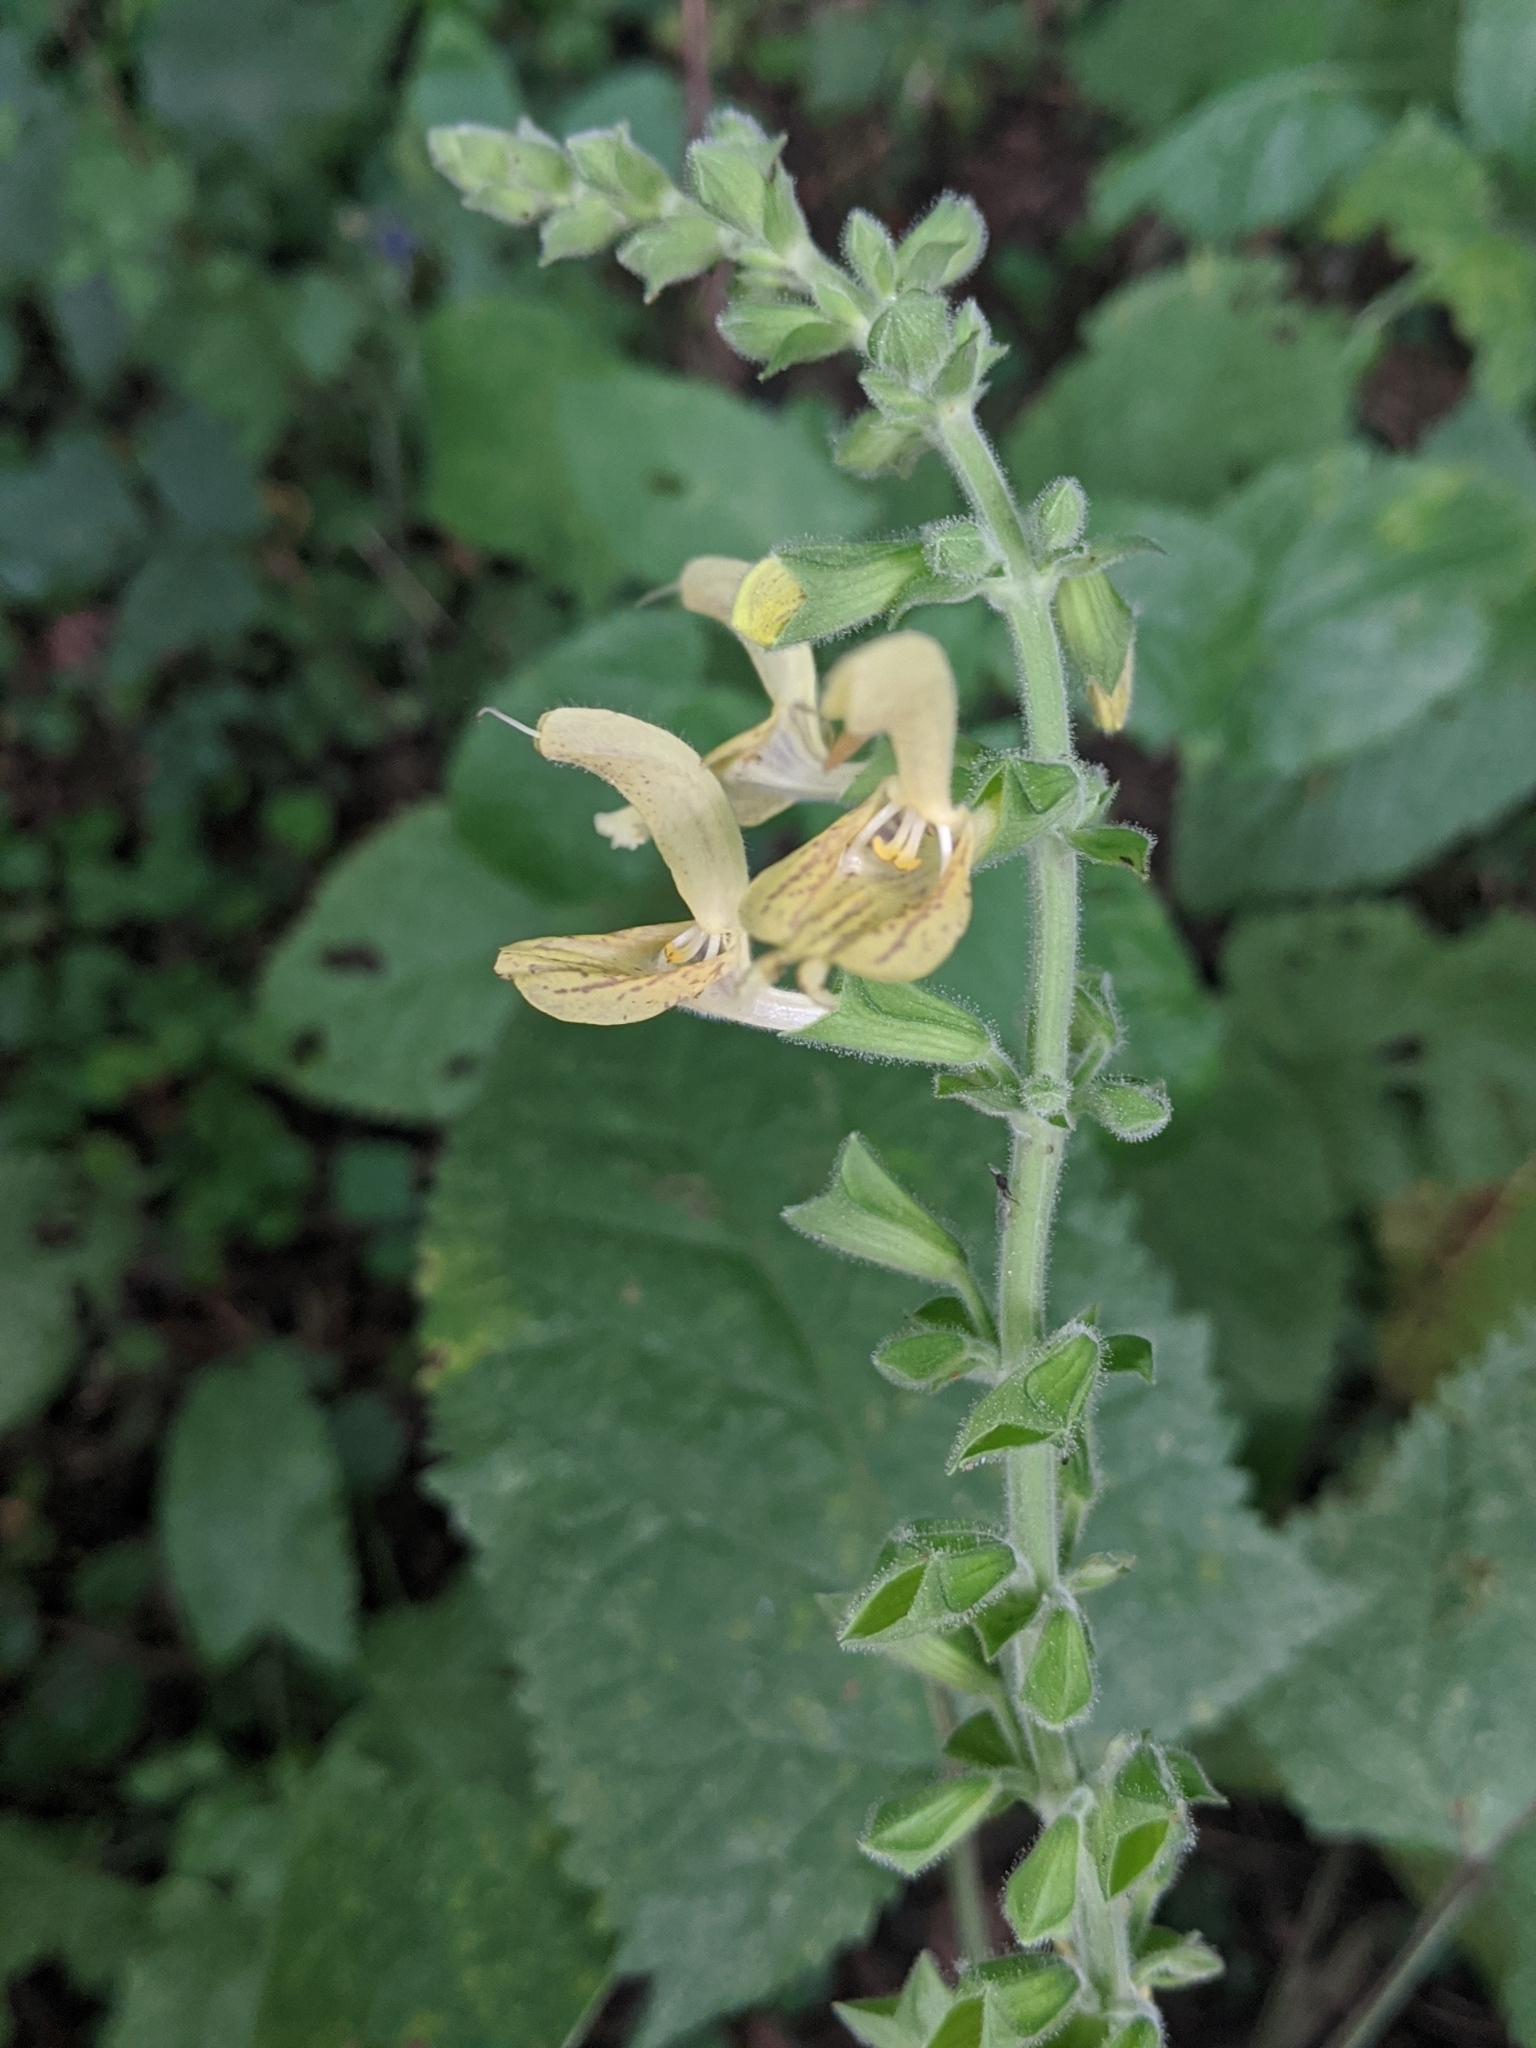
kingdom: Plantae
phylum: Tracheophyta
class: Magnoliopsida
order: Lamiales
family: Lamiaceae
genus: Salvia
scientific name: Salvia glutinosa
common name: Sticky clary
